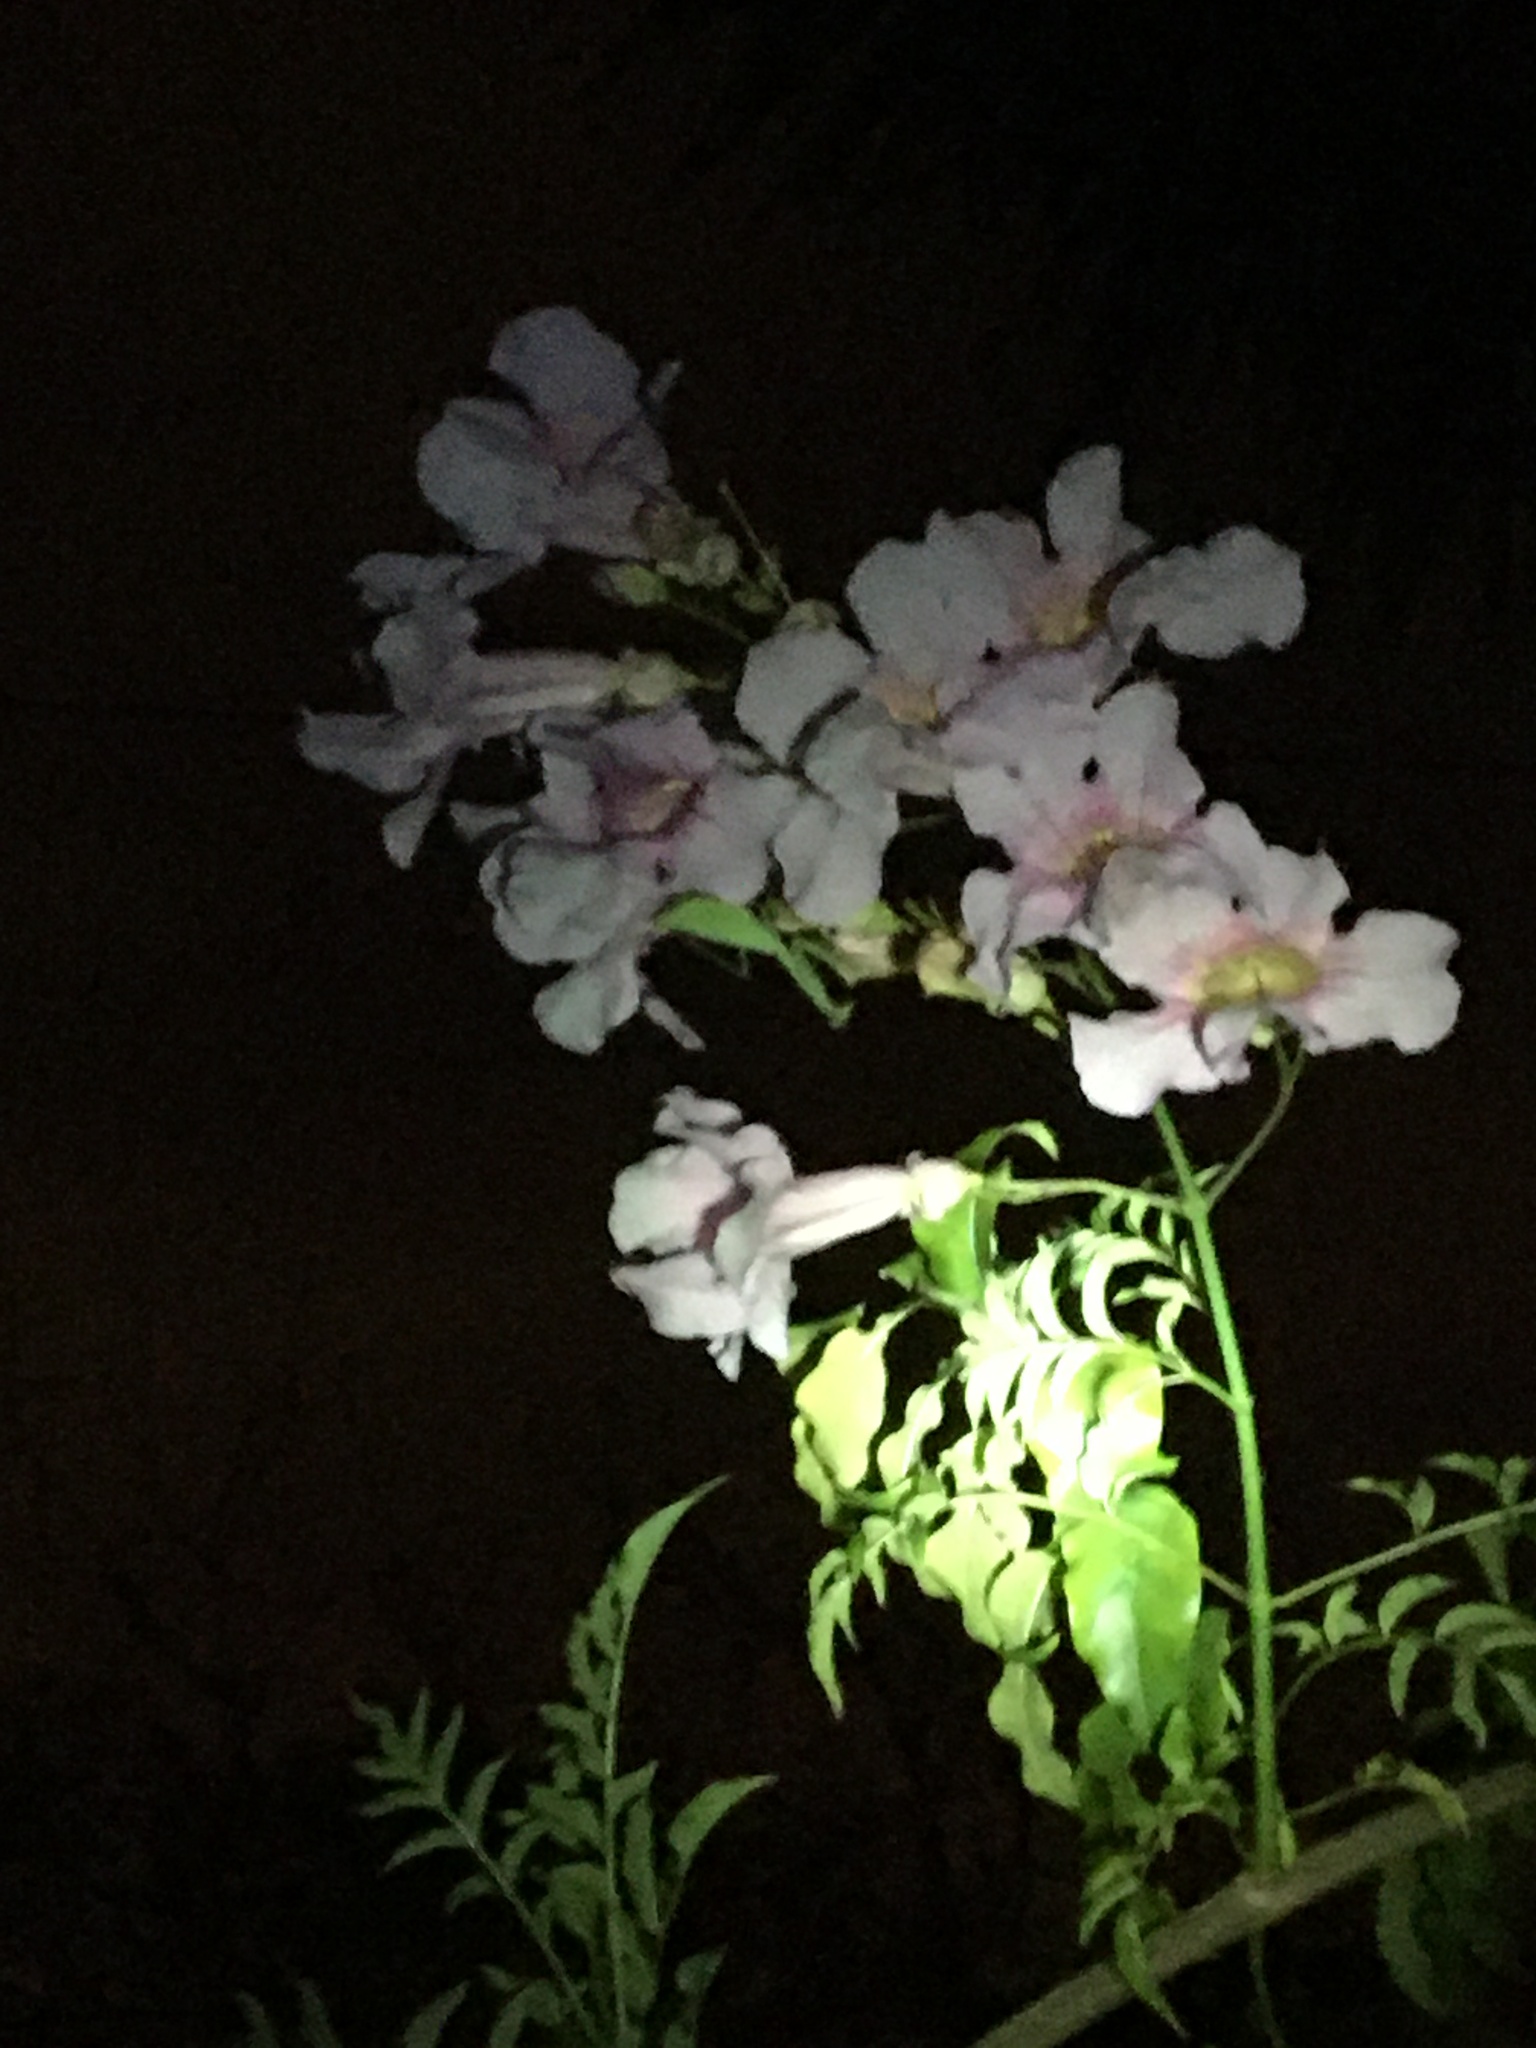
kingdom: Animalia
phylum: Arthropoda
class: Insecta
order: Mantodea
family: Miomantidae
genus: Miomantis
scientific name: Miomantis caffra
